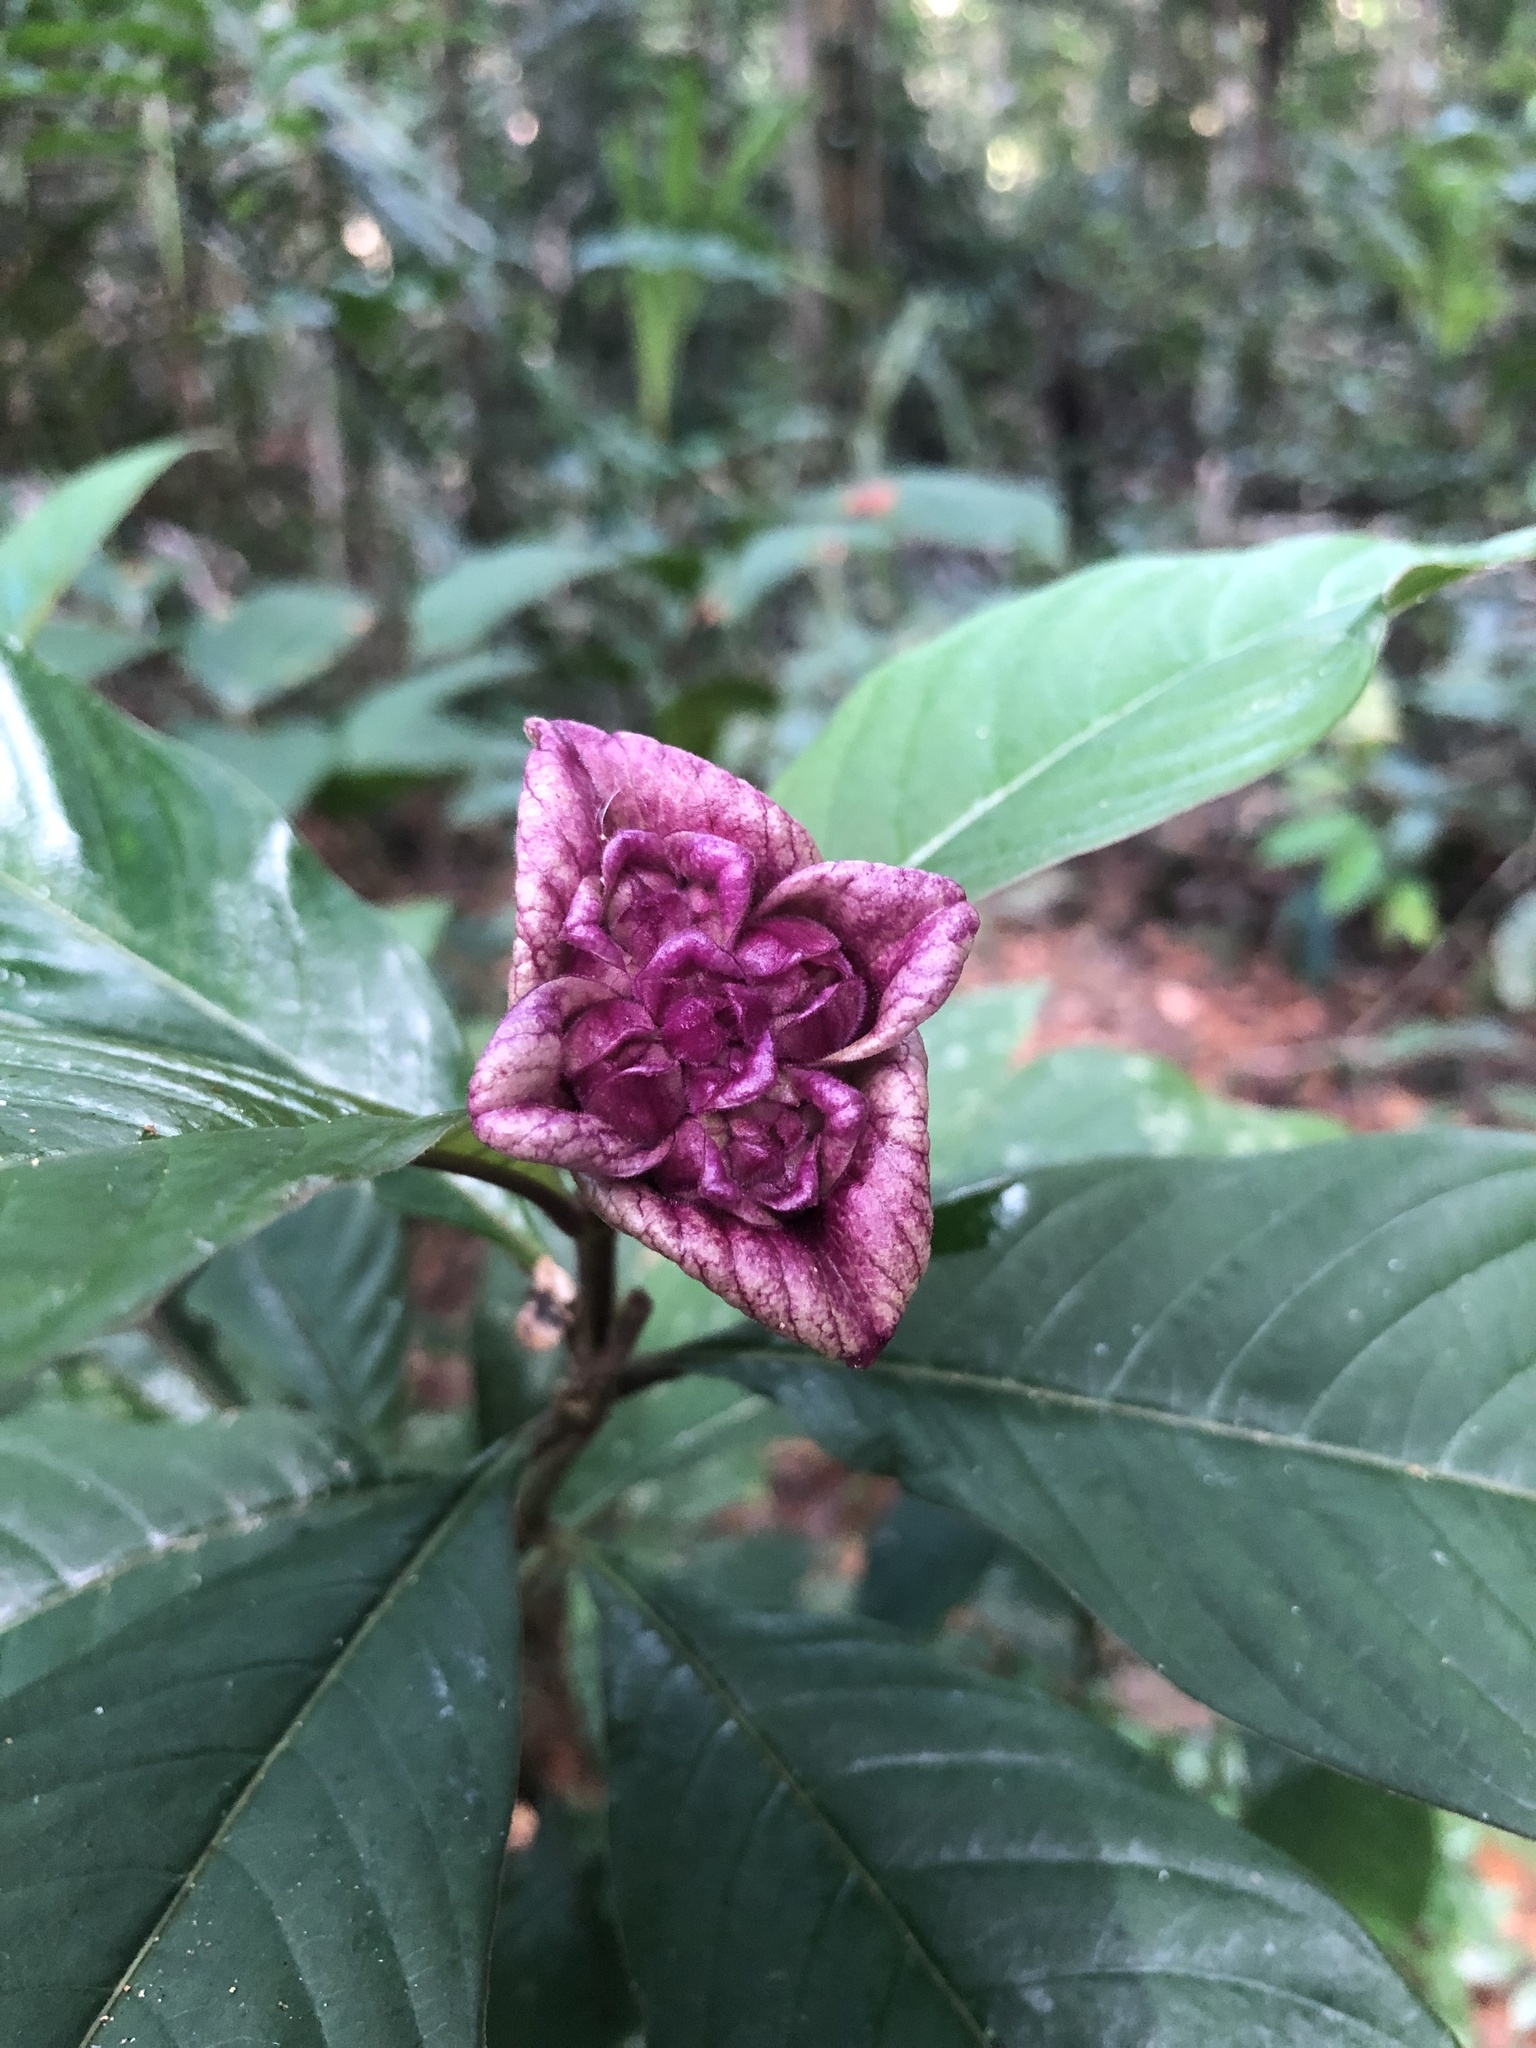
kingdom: Plantae
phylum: Tracheophyta
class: Magnoliopsida
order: Gentianales
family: Rubiaceae
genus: Palicourea
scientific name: Palicourea colorata
